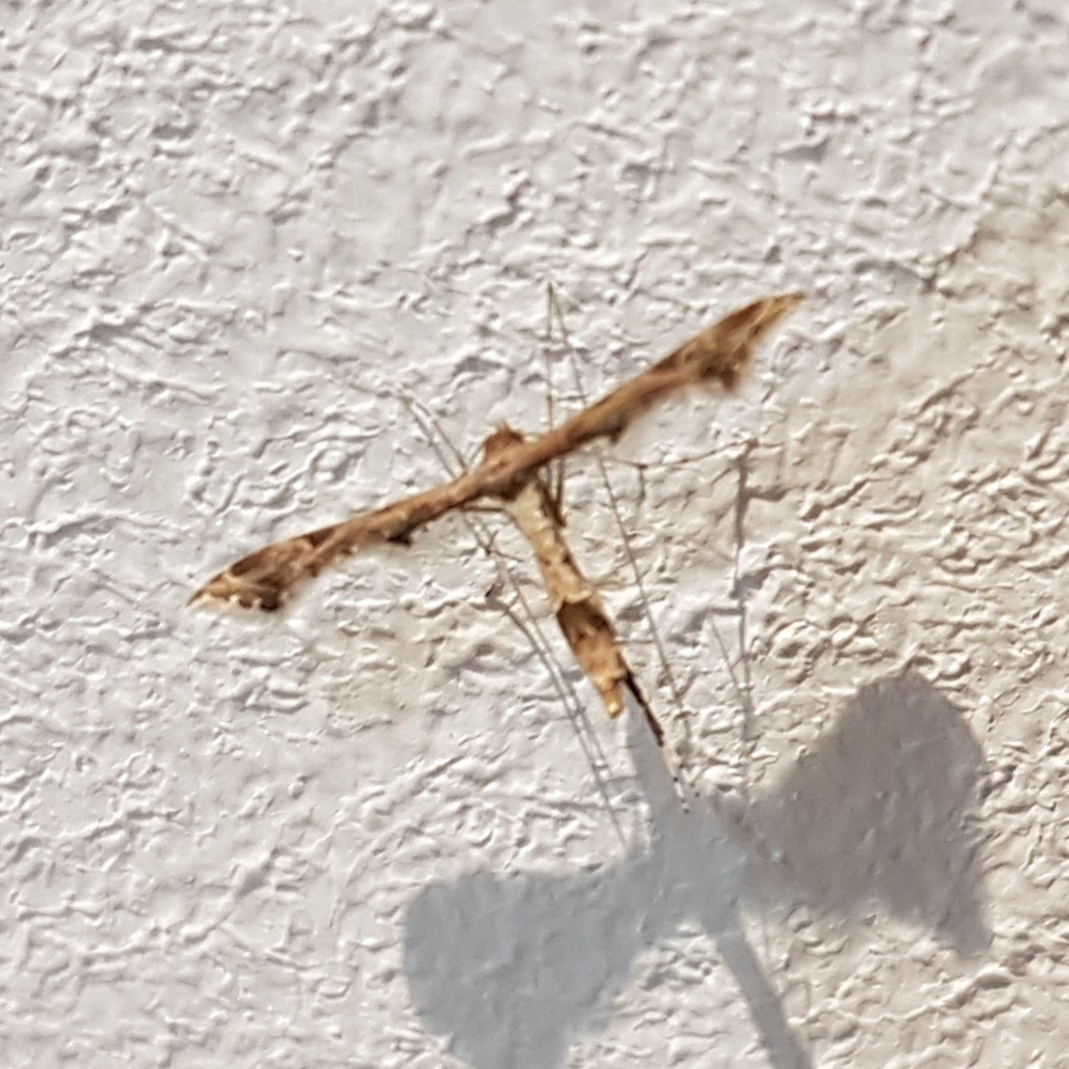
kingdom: Animalia
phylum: Arthropoda
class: Insecta
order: Lepidoptera
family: Pterophoridae
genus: Lantanophaga
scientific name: Lantanophaga pusillidactylus
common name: Moth
